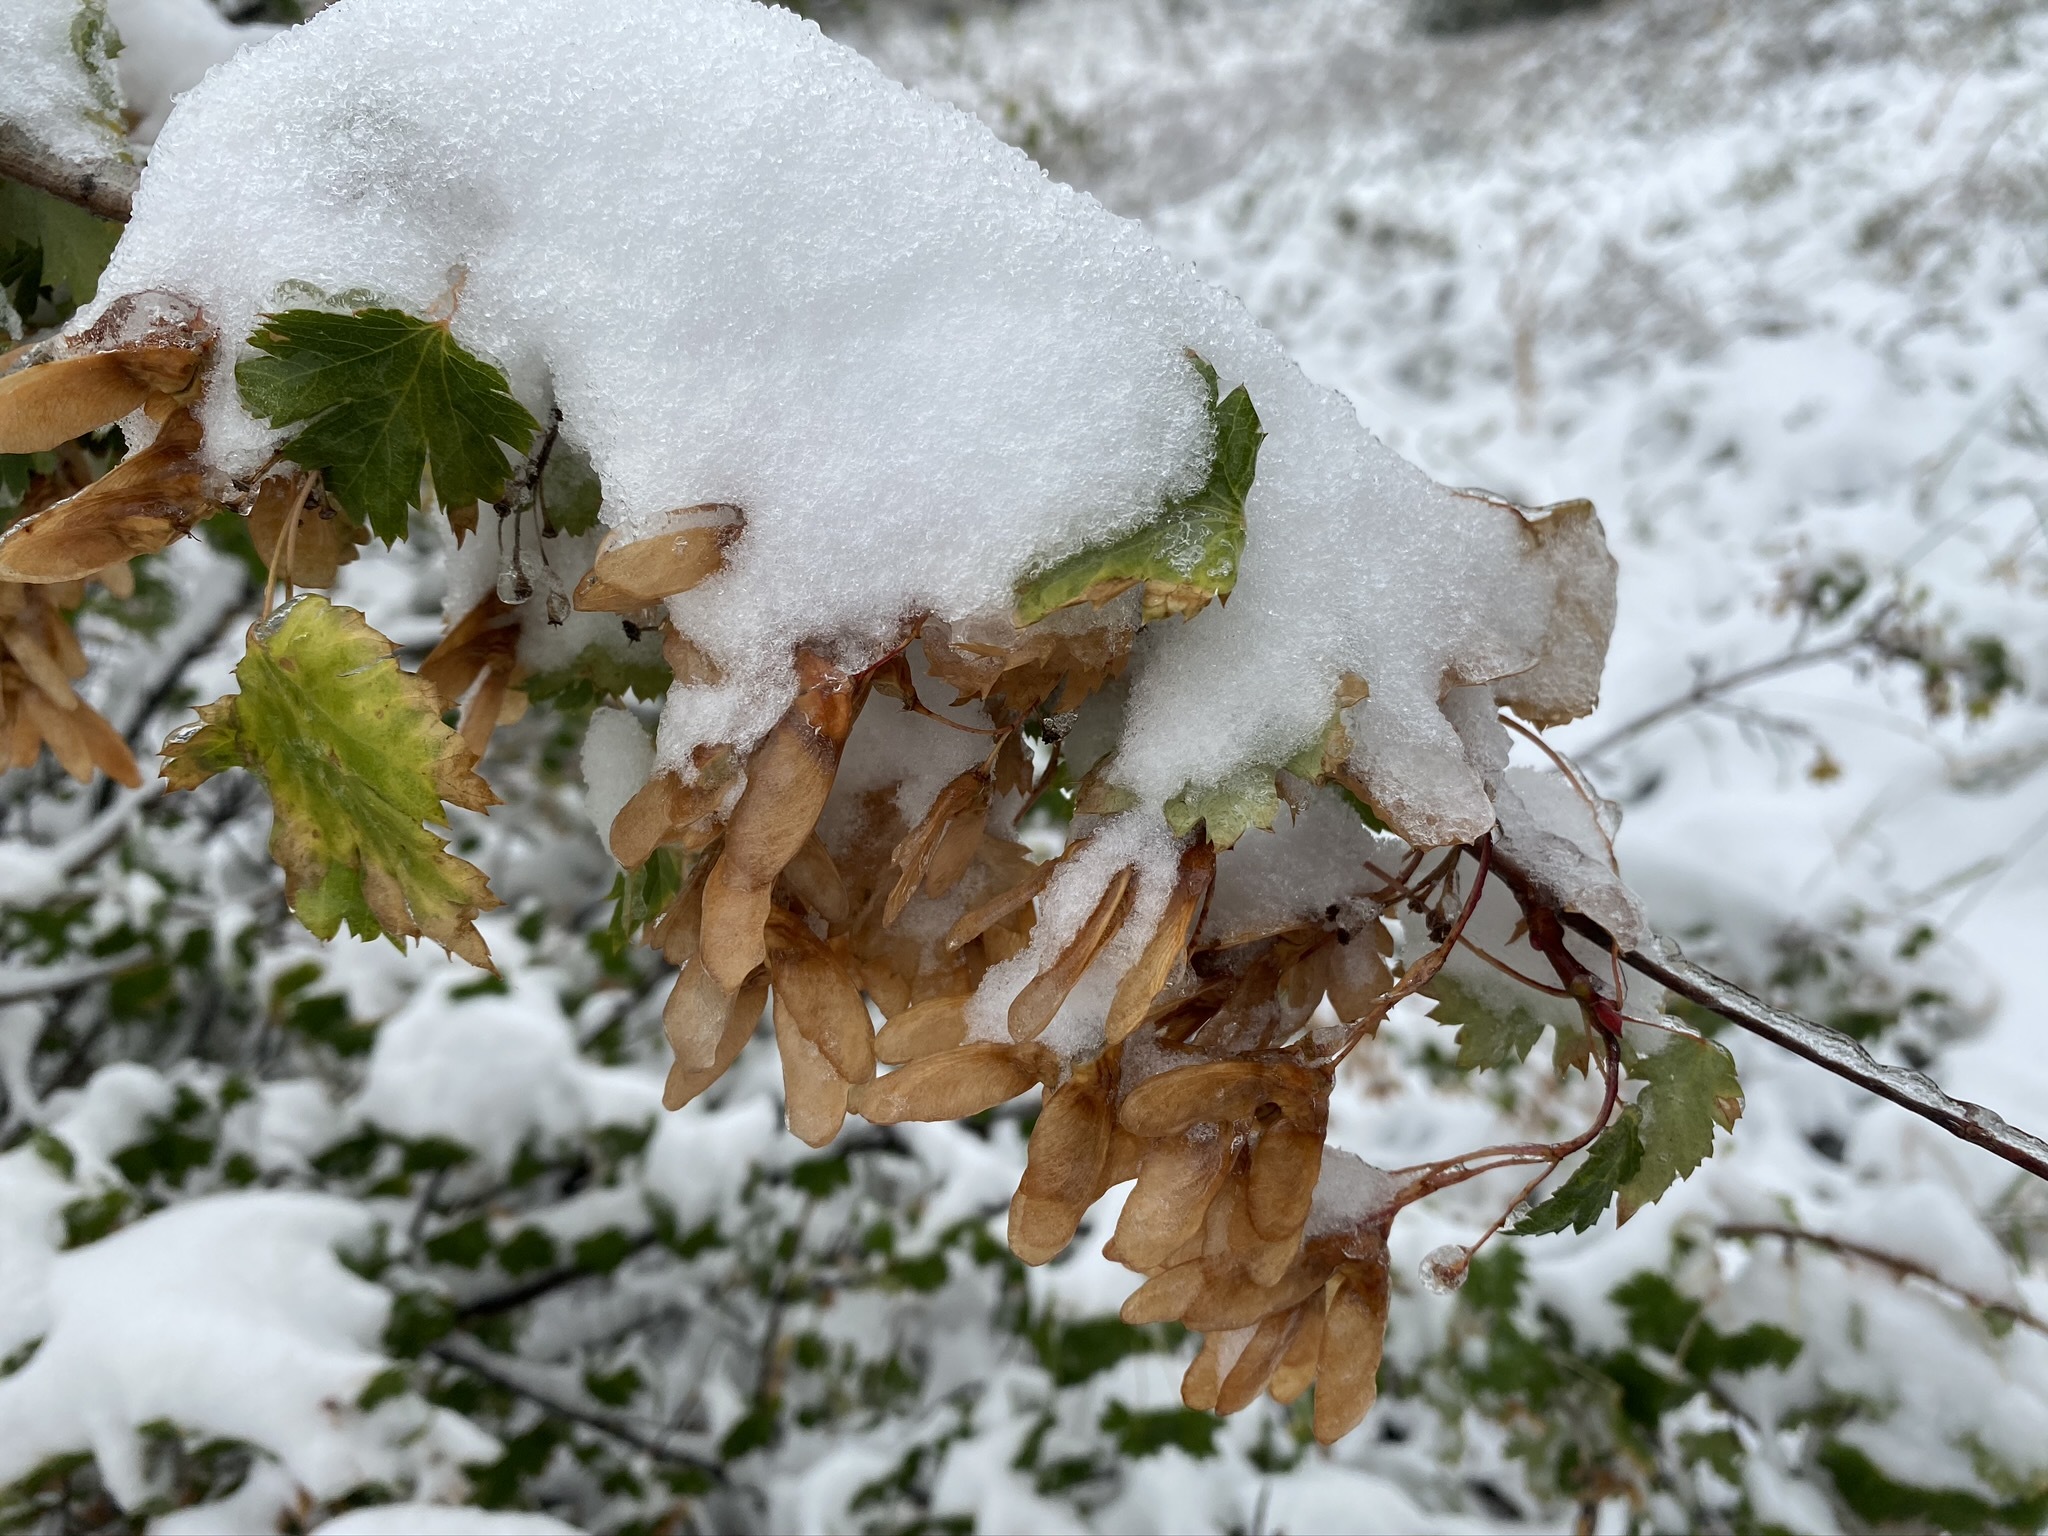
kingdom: Plantae
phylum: Tracheophyta
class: Magnoliopsida
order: Sapindales
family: Sapindaceae
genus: Acer
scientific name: Acer glabrum
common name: Rocky mountain maple
